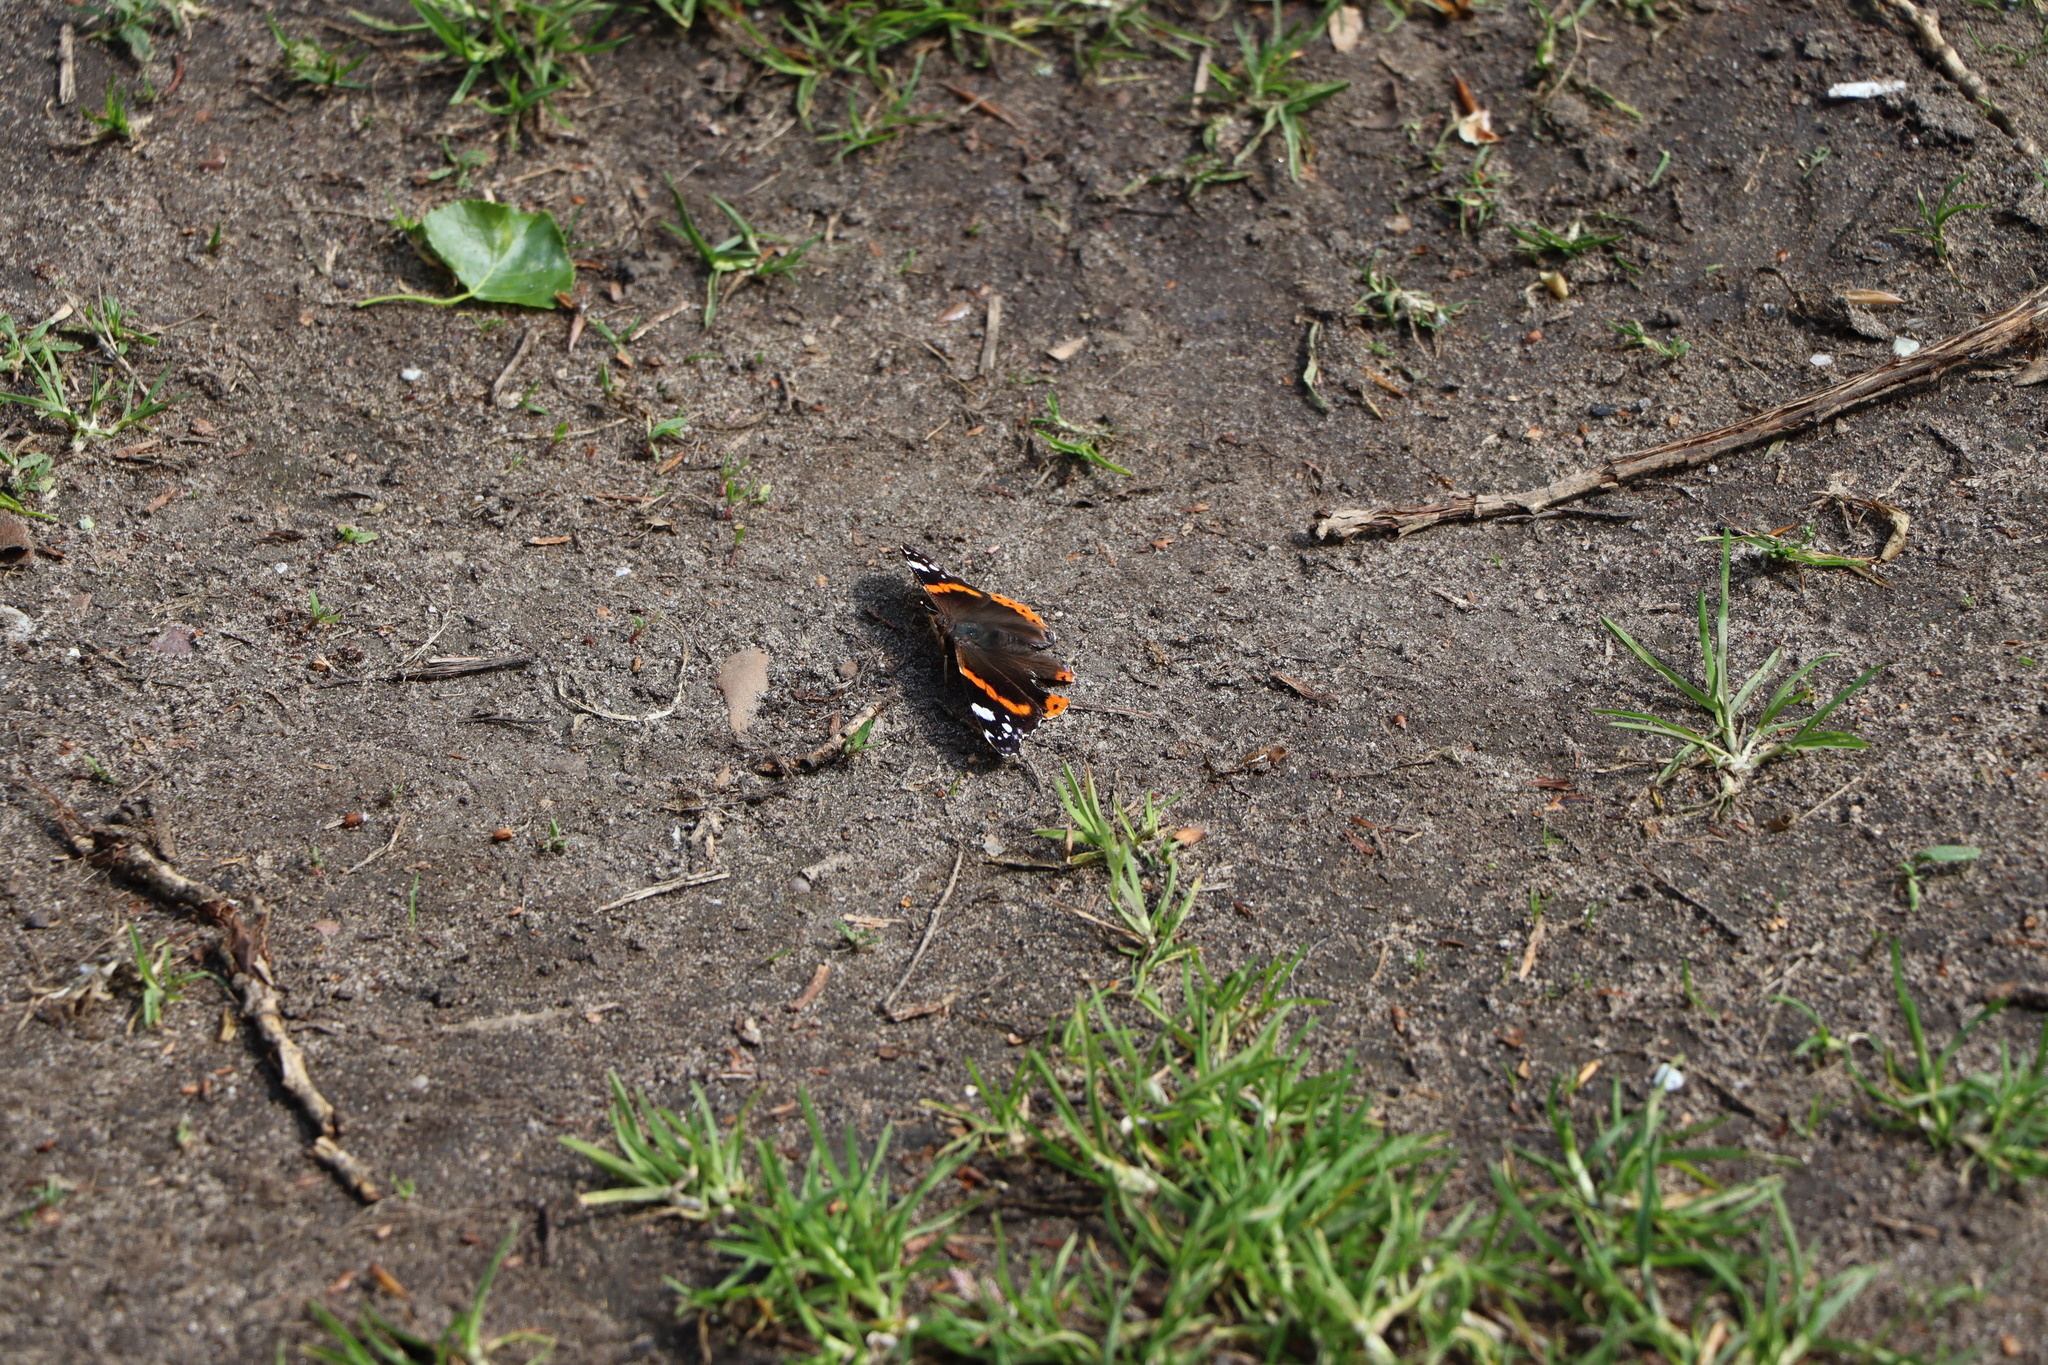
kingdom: Animalia
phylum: Arthropoda
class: Insecta
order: Lepidoptera
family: Nymphalidae
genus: Vanessa
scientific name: Vanessa atalanta
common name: Red admiral
